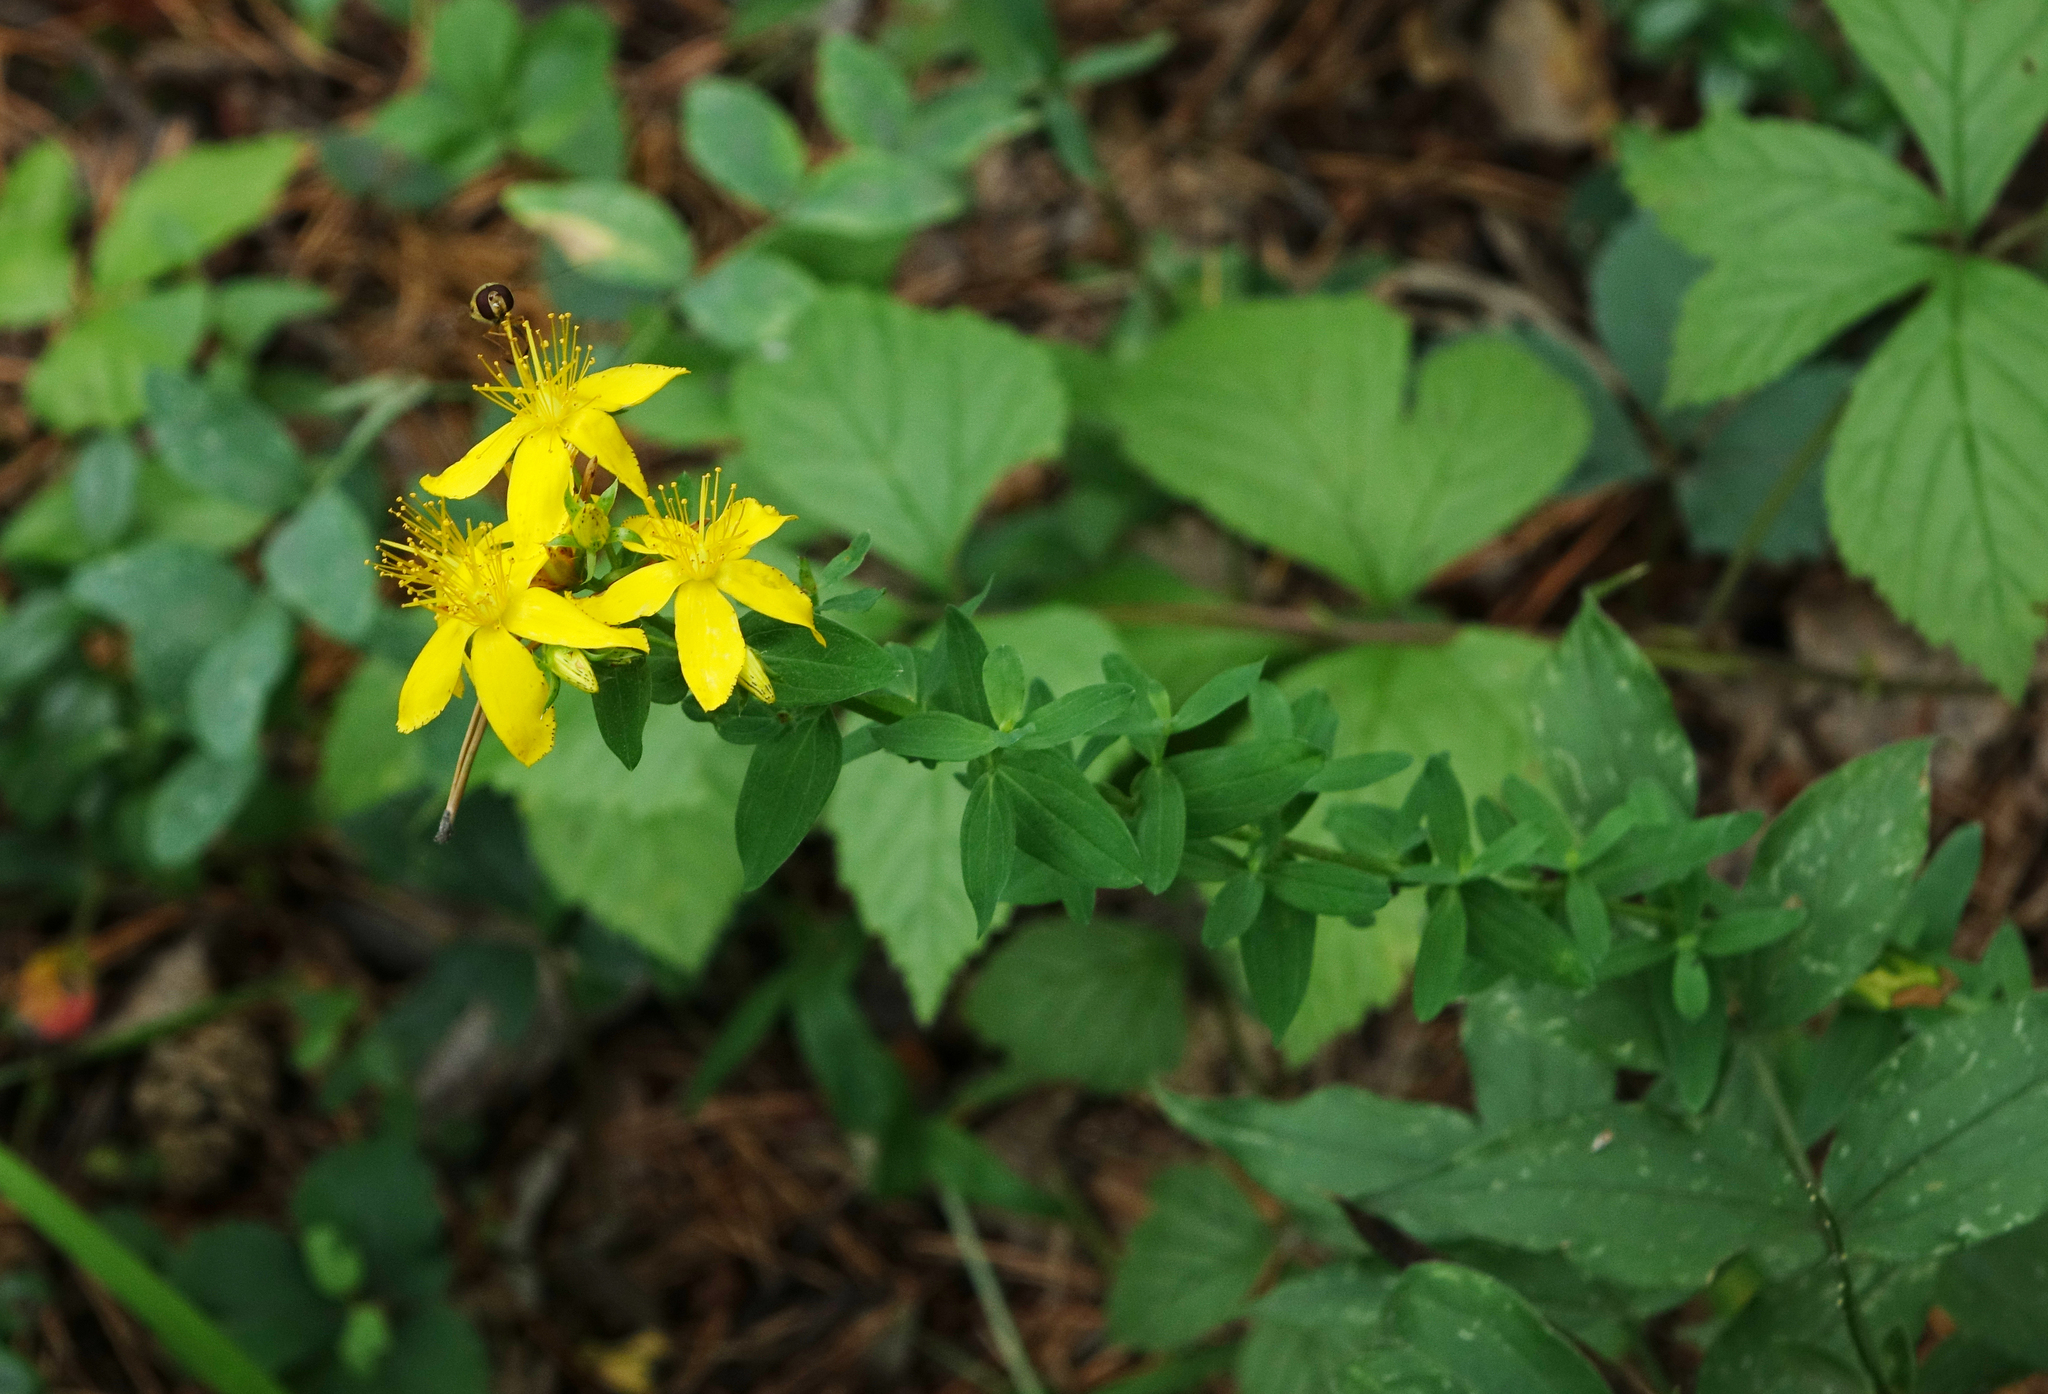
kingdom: Plantae
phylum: Tracheophyta
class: Magnoliopsida
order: Malpighiales
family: Hypericaceae
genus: Hypericum
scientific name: Hypericum perforatum
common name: Common st. johnswort
